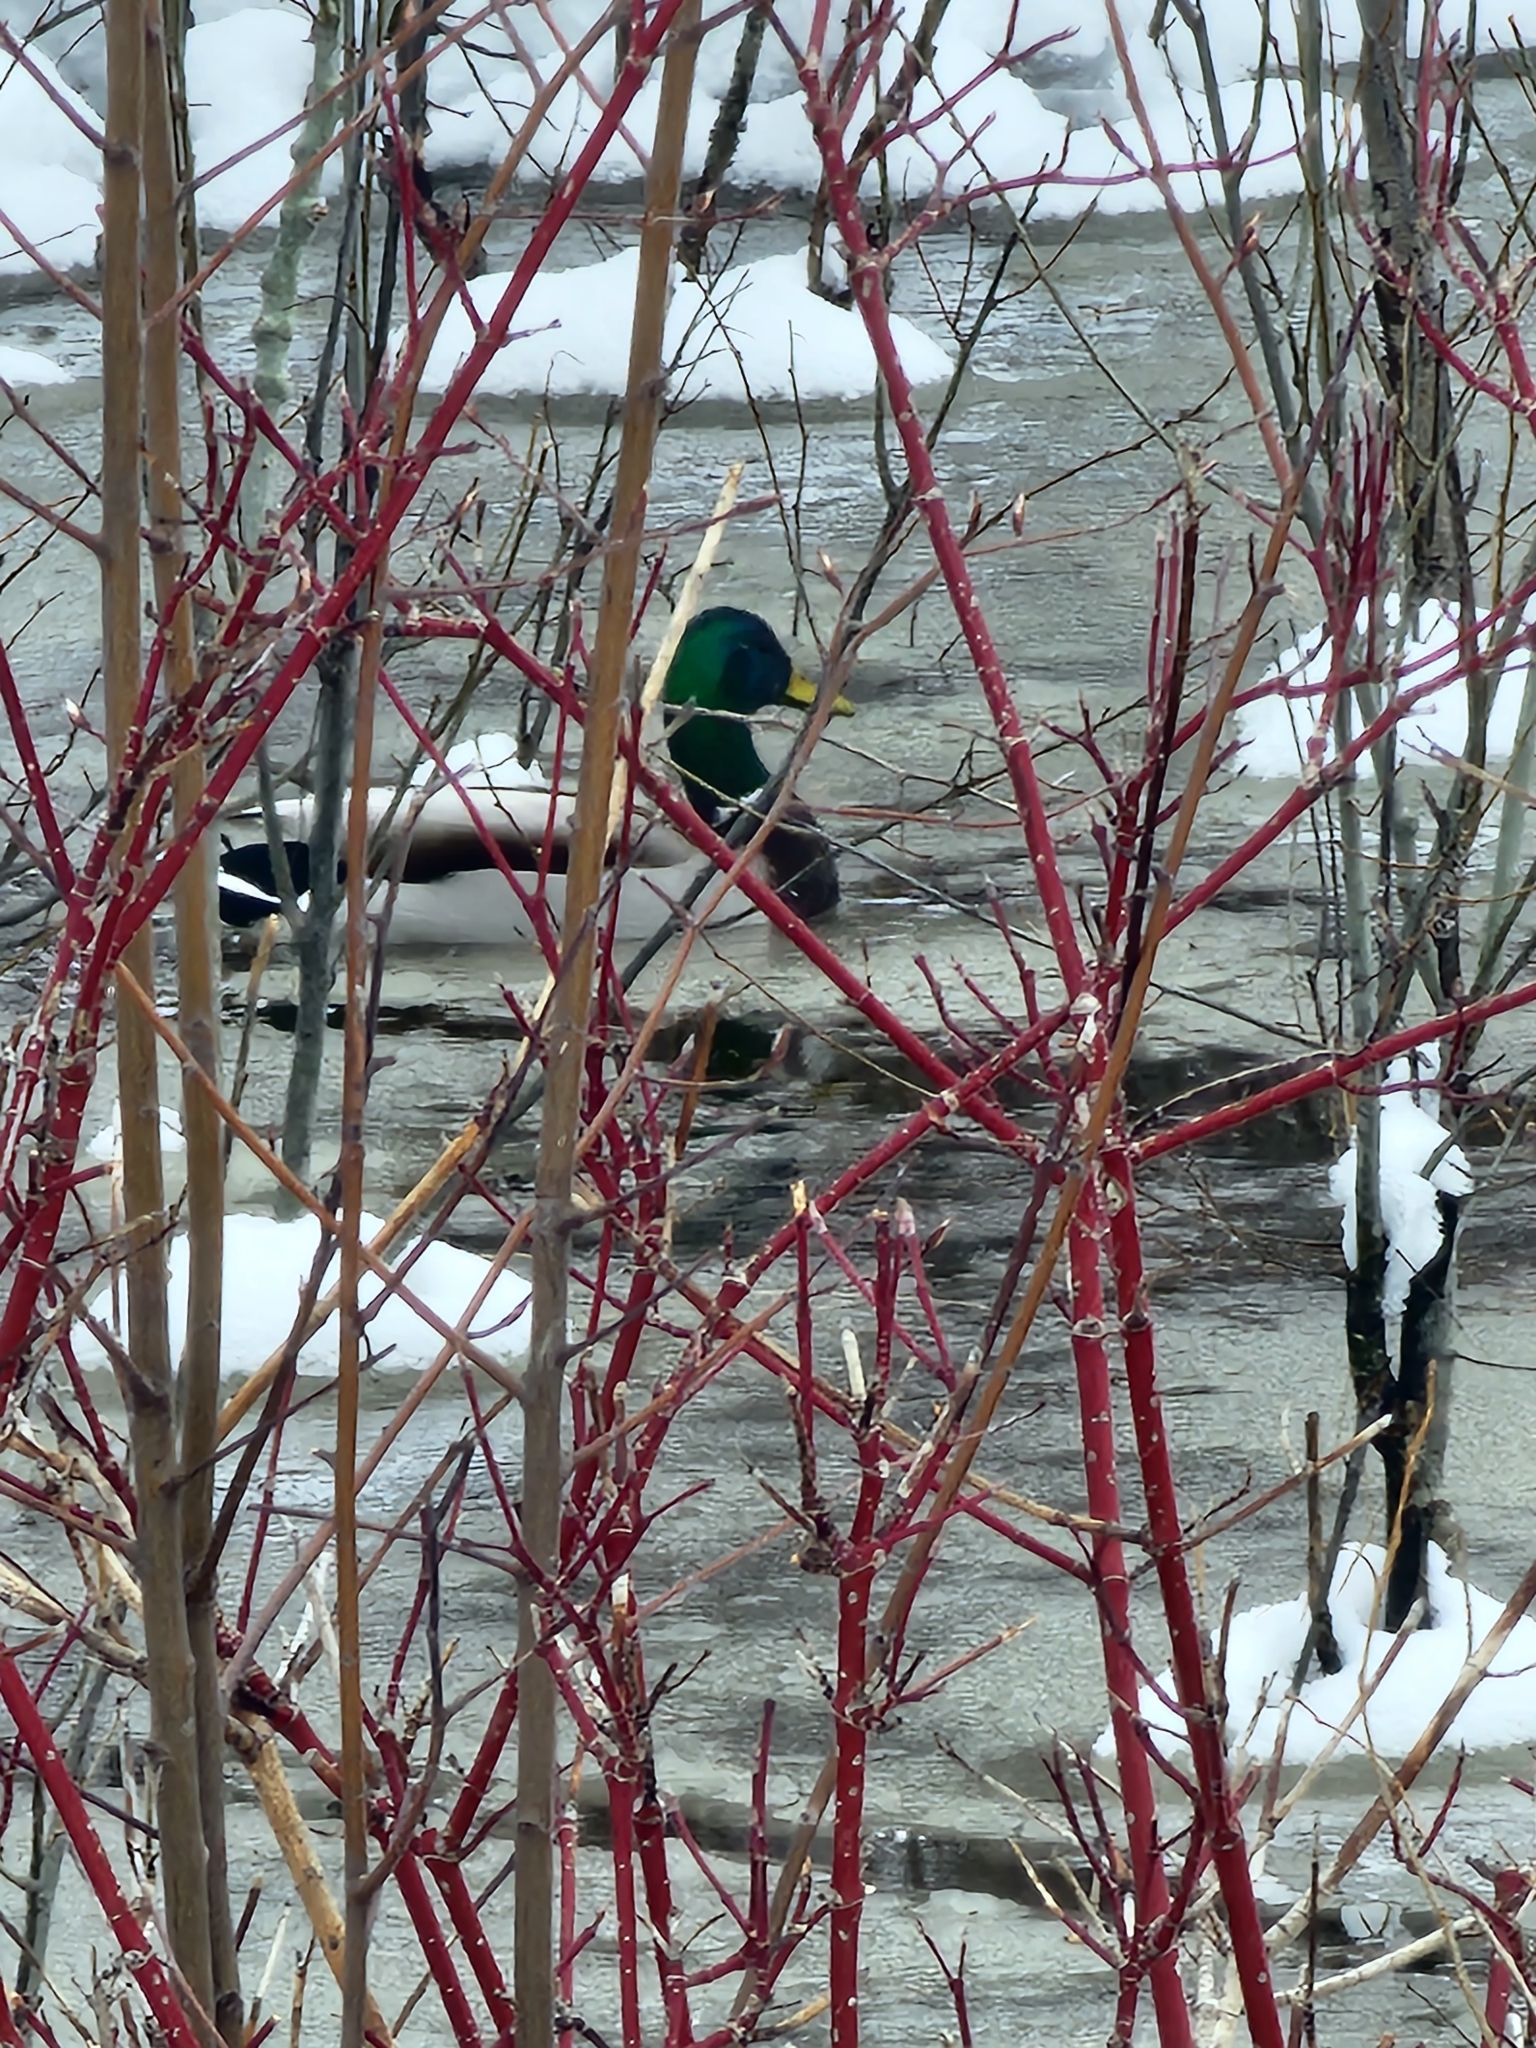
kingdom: Animalia
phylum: Chordata
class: Aves
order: Anseriformes
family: Anatidae
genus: Anas
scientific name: Anas platyrhynchos
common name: Mallard
